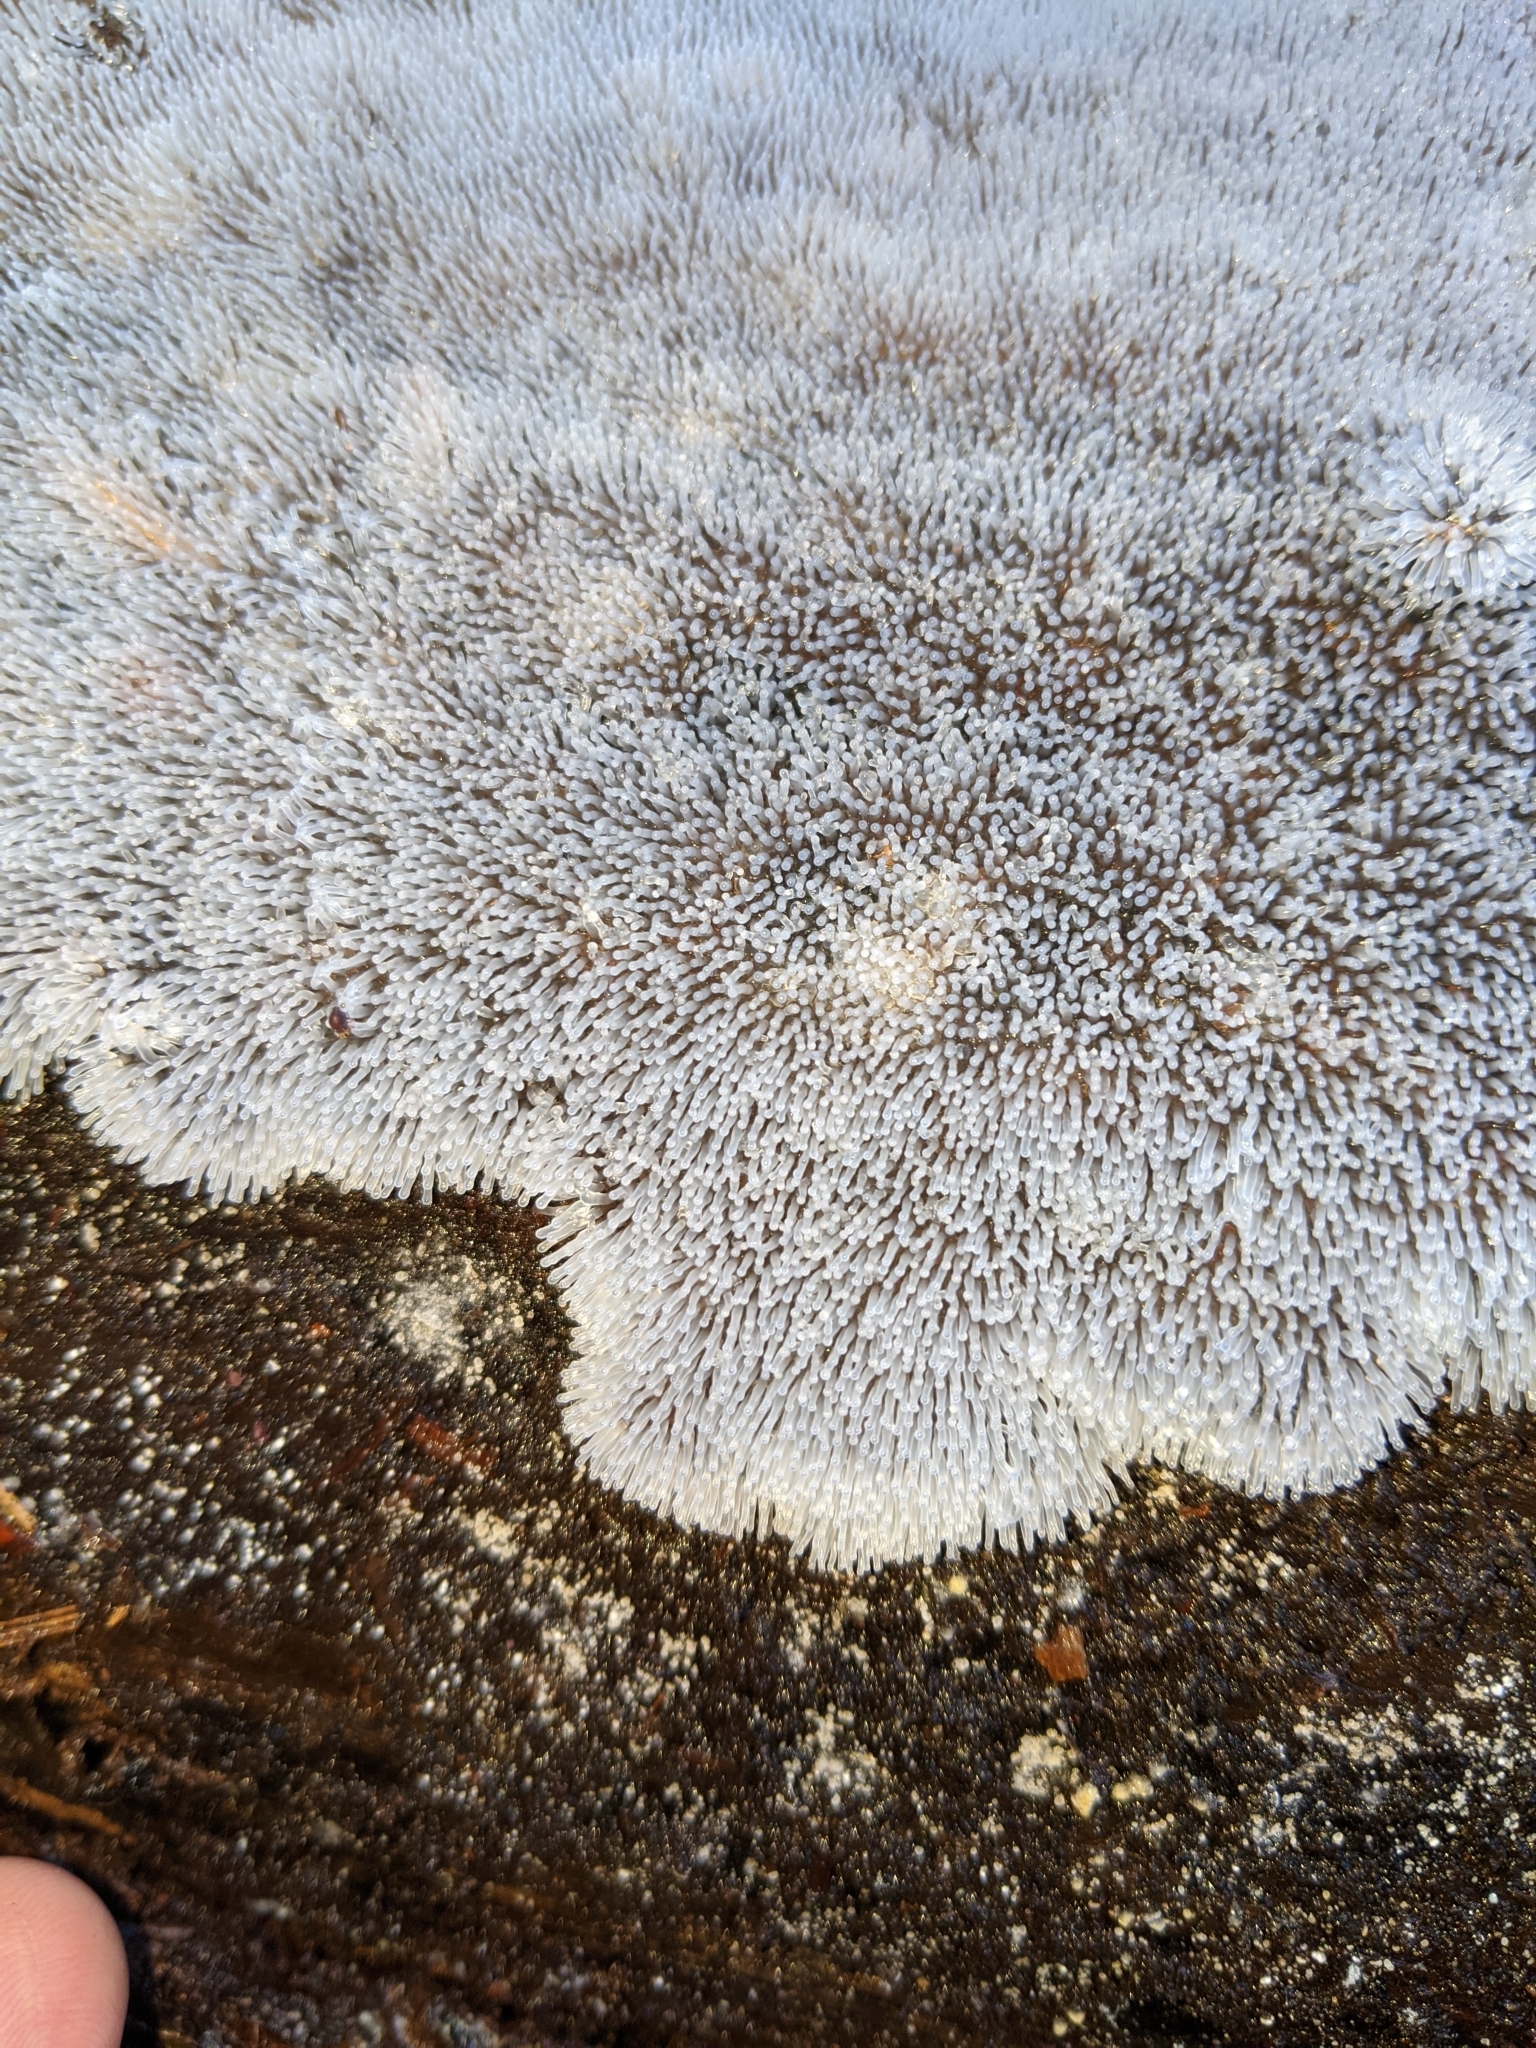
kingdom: Protozoa
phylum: Mycetozoa
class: Protosteliomycetes
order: Ceratiomyxales
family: Ceratiomyxaceae
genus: Ceratiomyxa
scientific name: Ceratiomyxa fruticulosa
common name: Honeycomb coral slime mold
